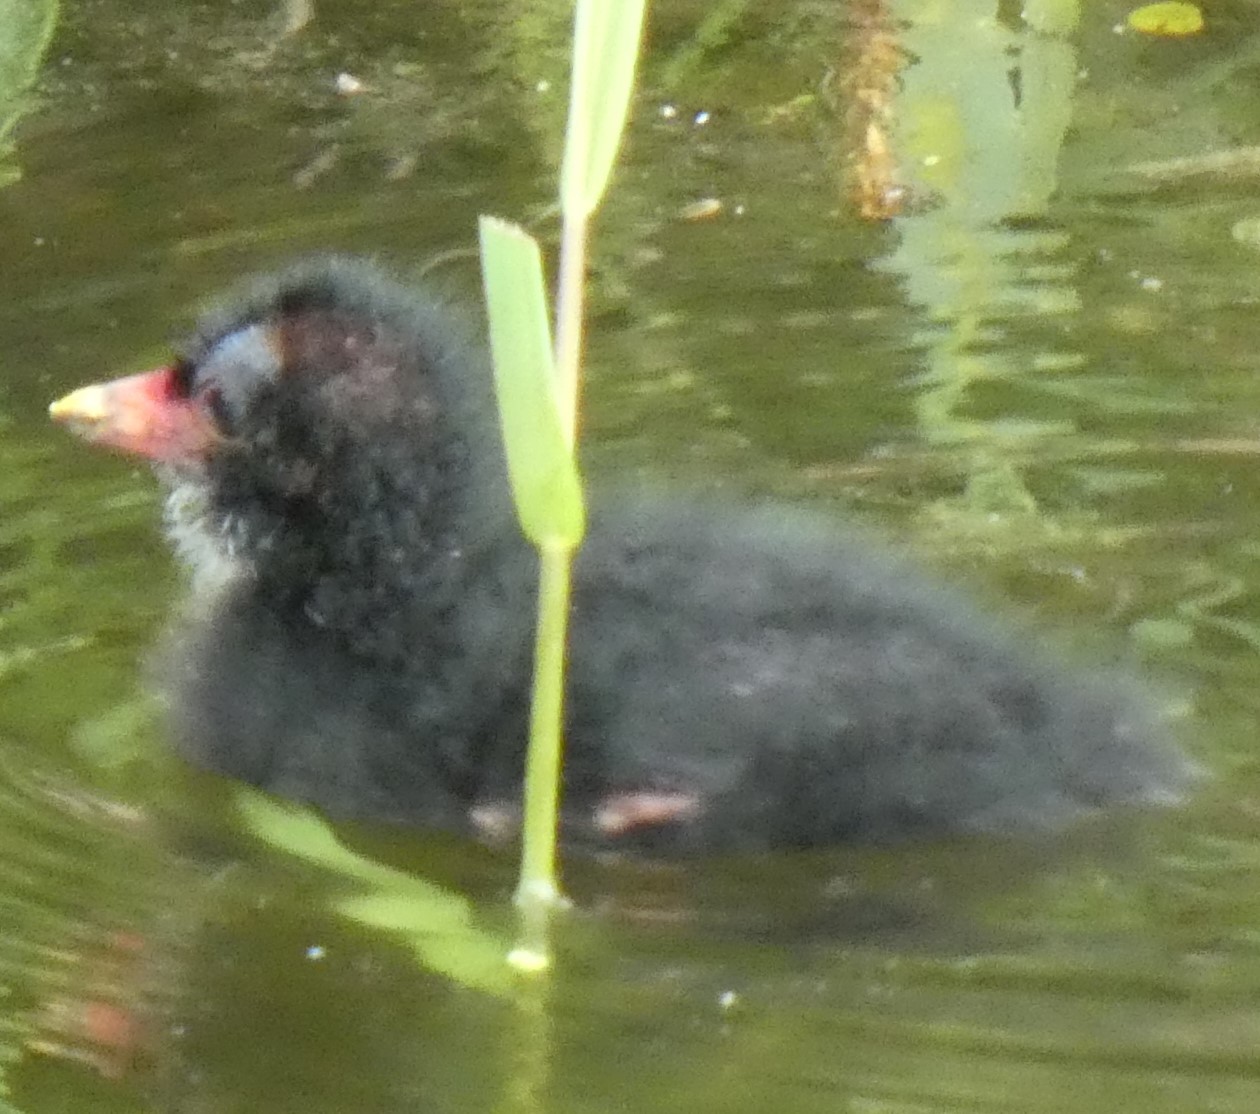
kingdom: Animalia
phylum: Chordata
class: Aves
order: Gruiformes
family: Rallidae
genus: Gallinula
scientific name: Gallinula chloropus
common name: Common moorhen
